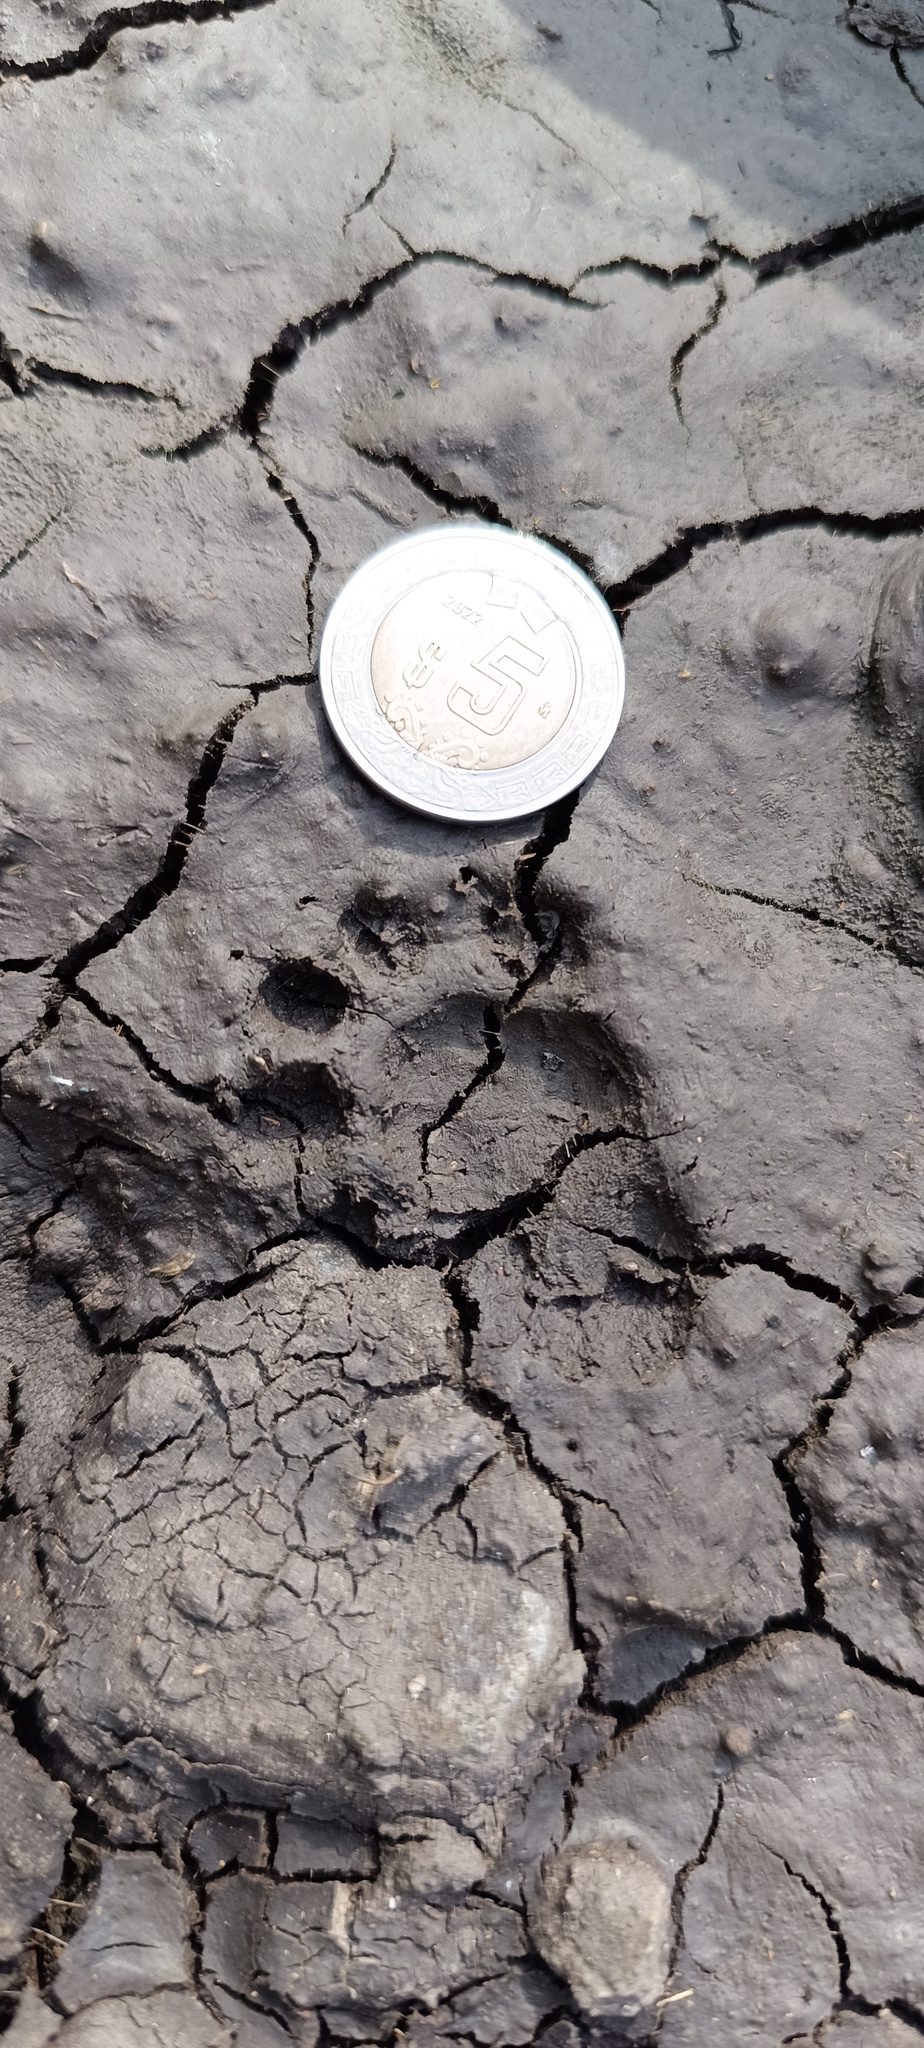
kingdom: Animalia
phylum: Chordata
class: Mammalia
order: Carnivora
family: Mephitidae
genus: Mephitis
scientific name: Mephitis macroura
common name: Hooded skunk
